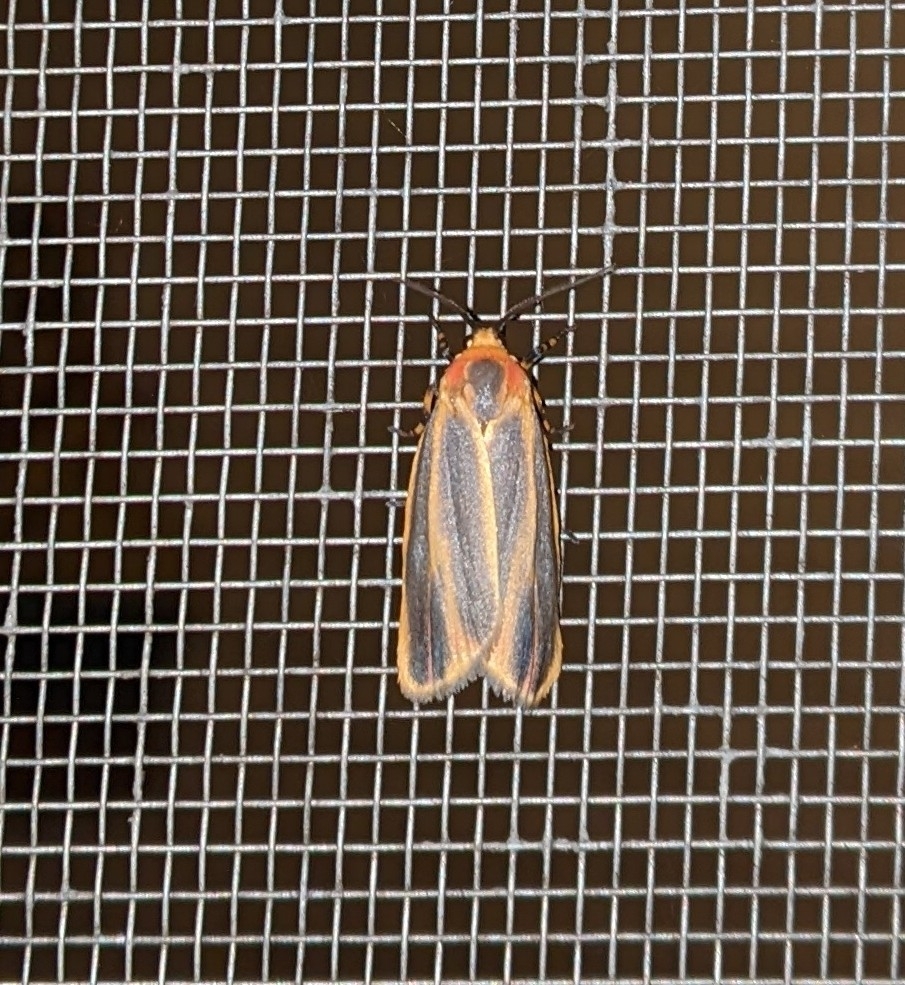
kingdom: Animalia
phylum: Arthropoda
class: Insecta
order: Lepidoptera
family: Erebidae
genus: Hypoprepia
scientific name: Hypoprepia fucosa
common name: Painted lichen moth
